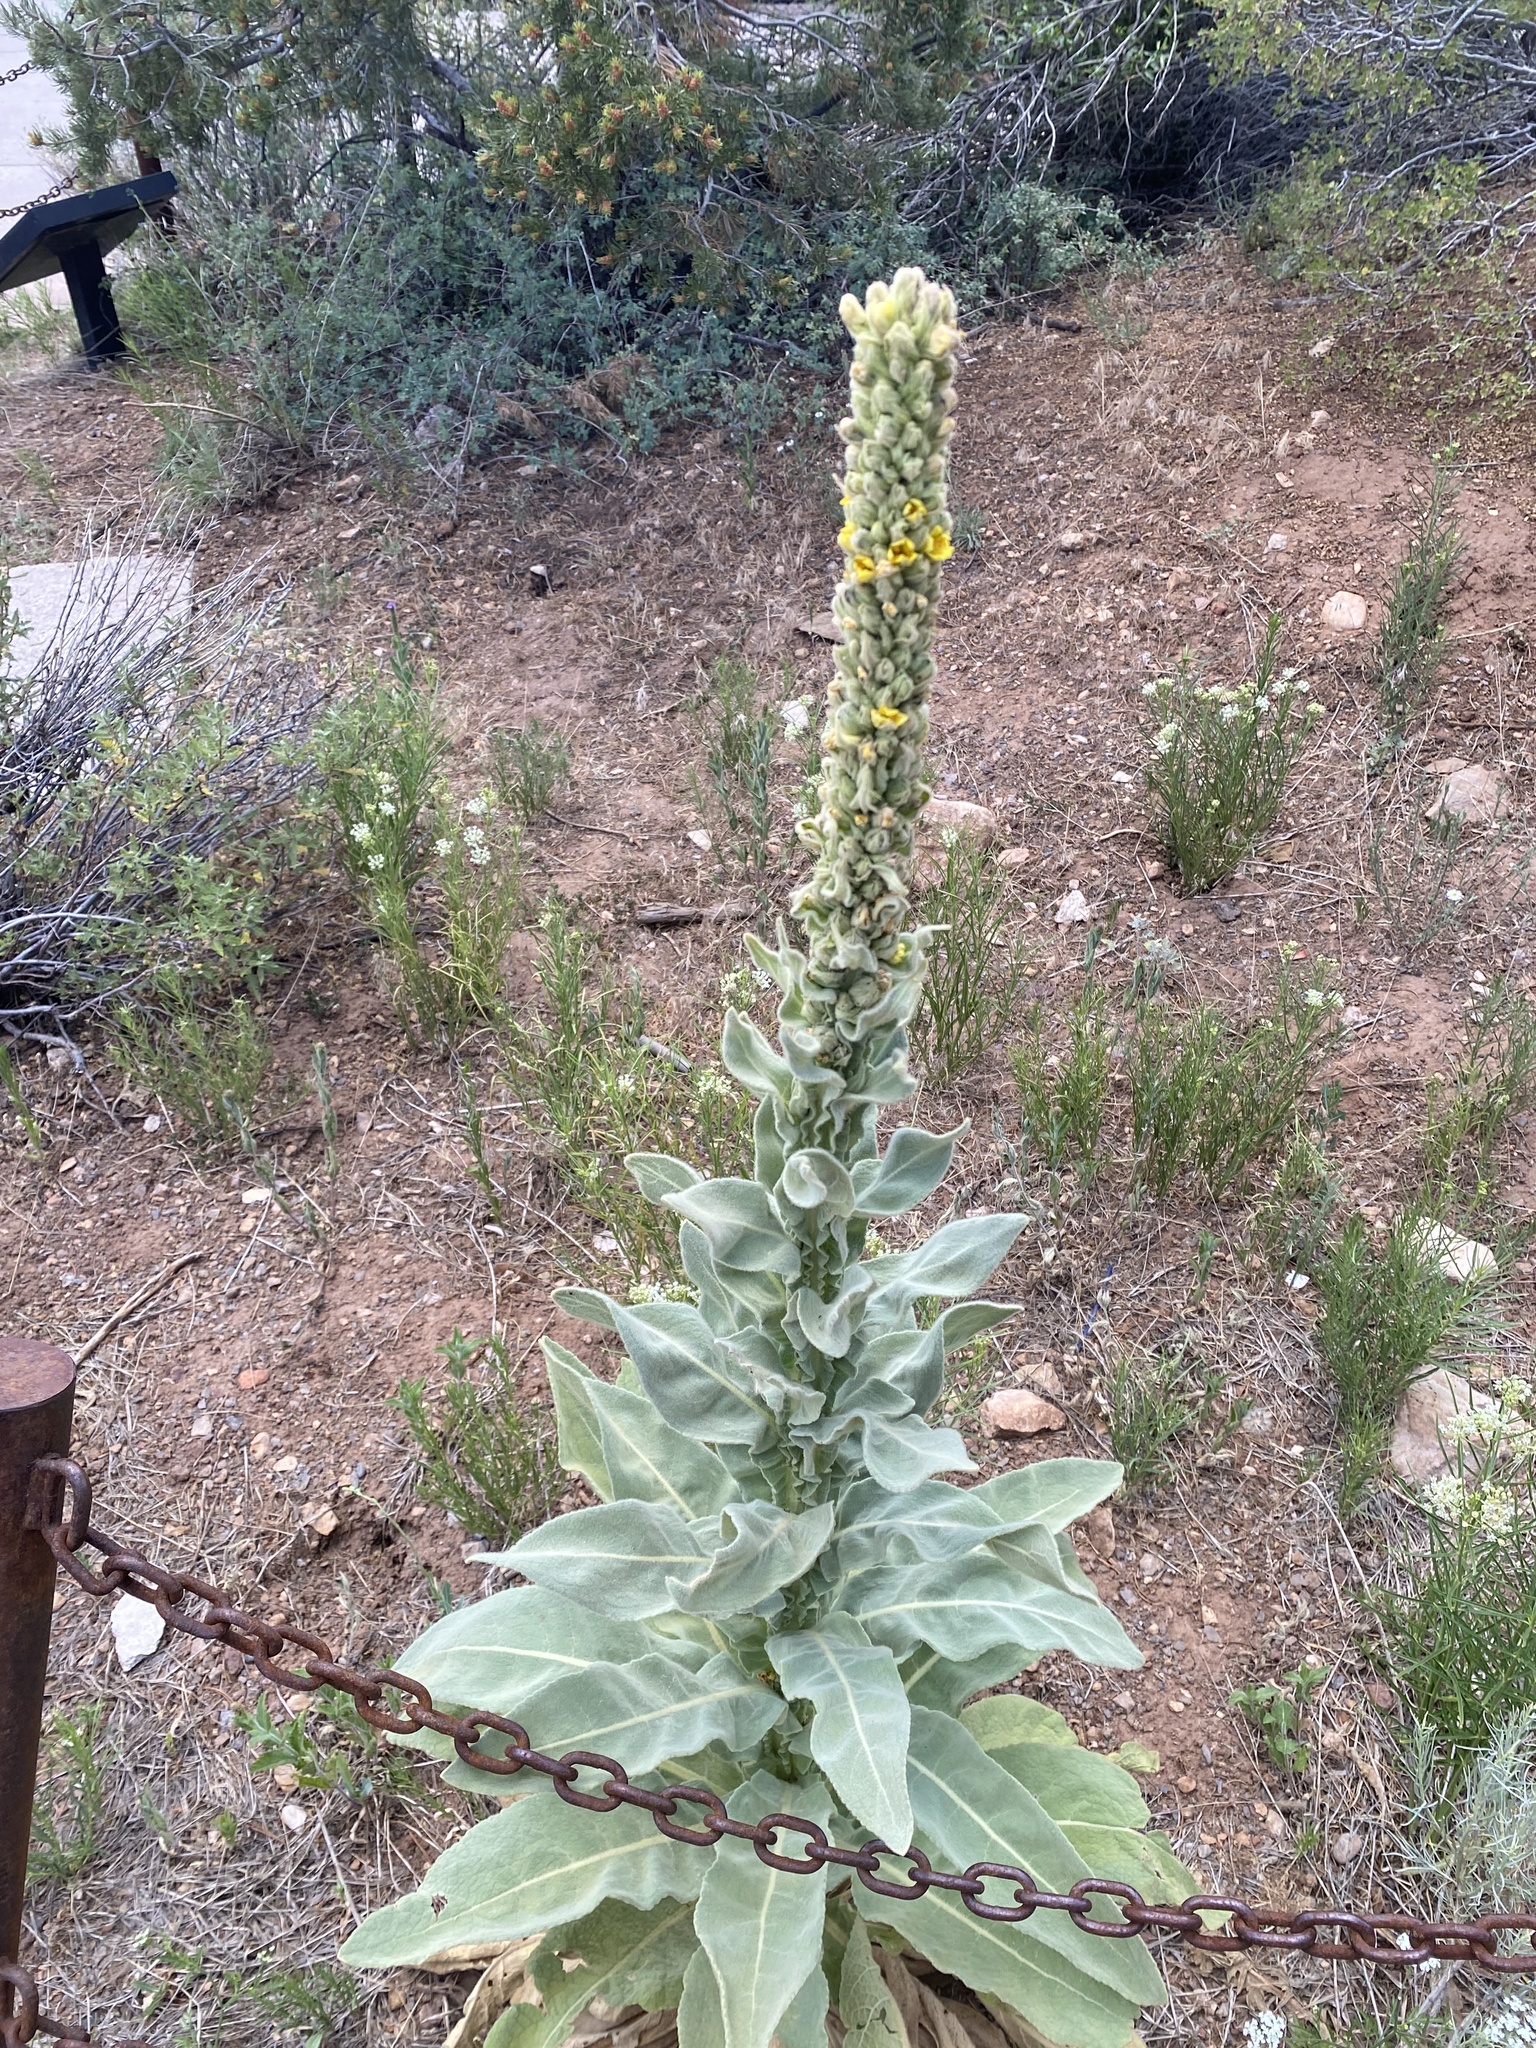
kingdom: Plantae
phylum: Tracheophyta
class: Magnoliopsida
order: Lamiales
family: Scrophulariaceae
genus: Verbascum
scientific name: Verbascum thapsus
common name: Common mullein
